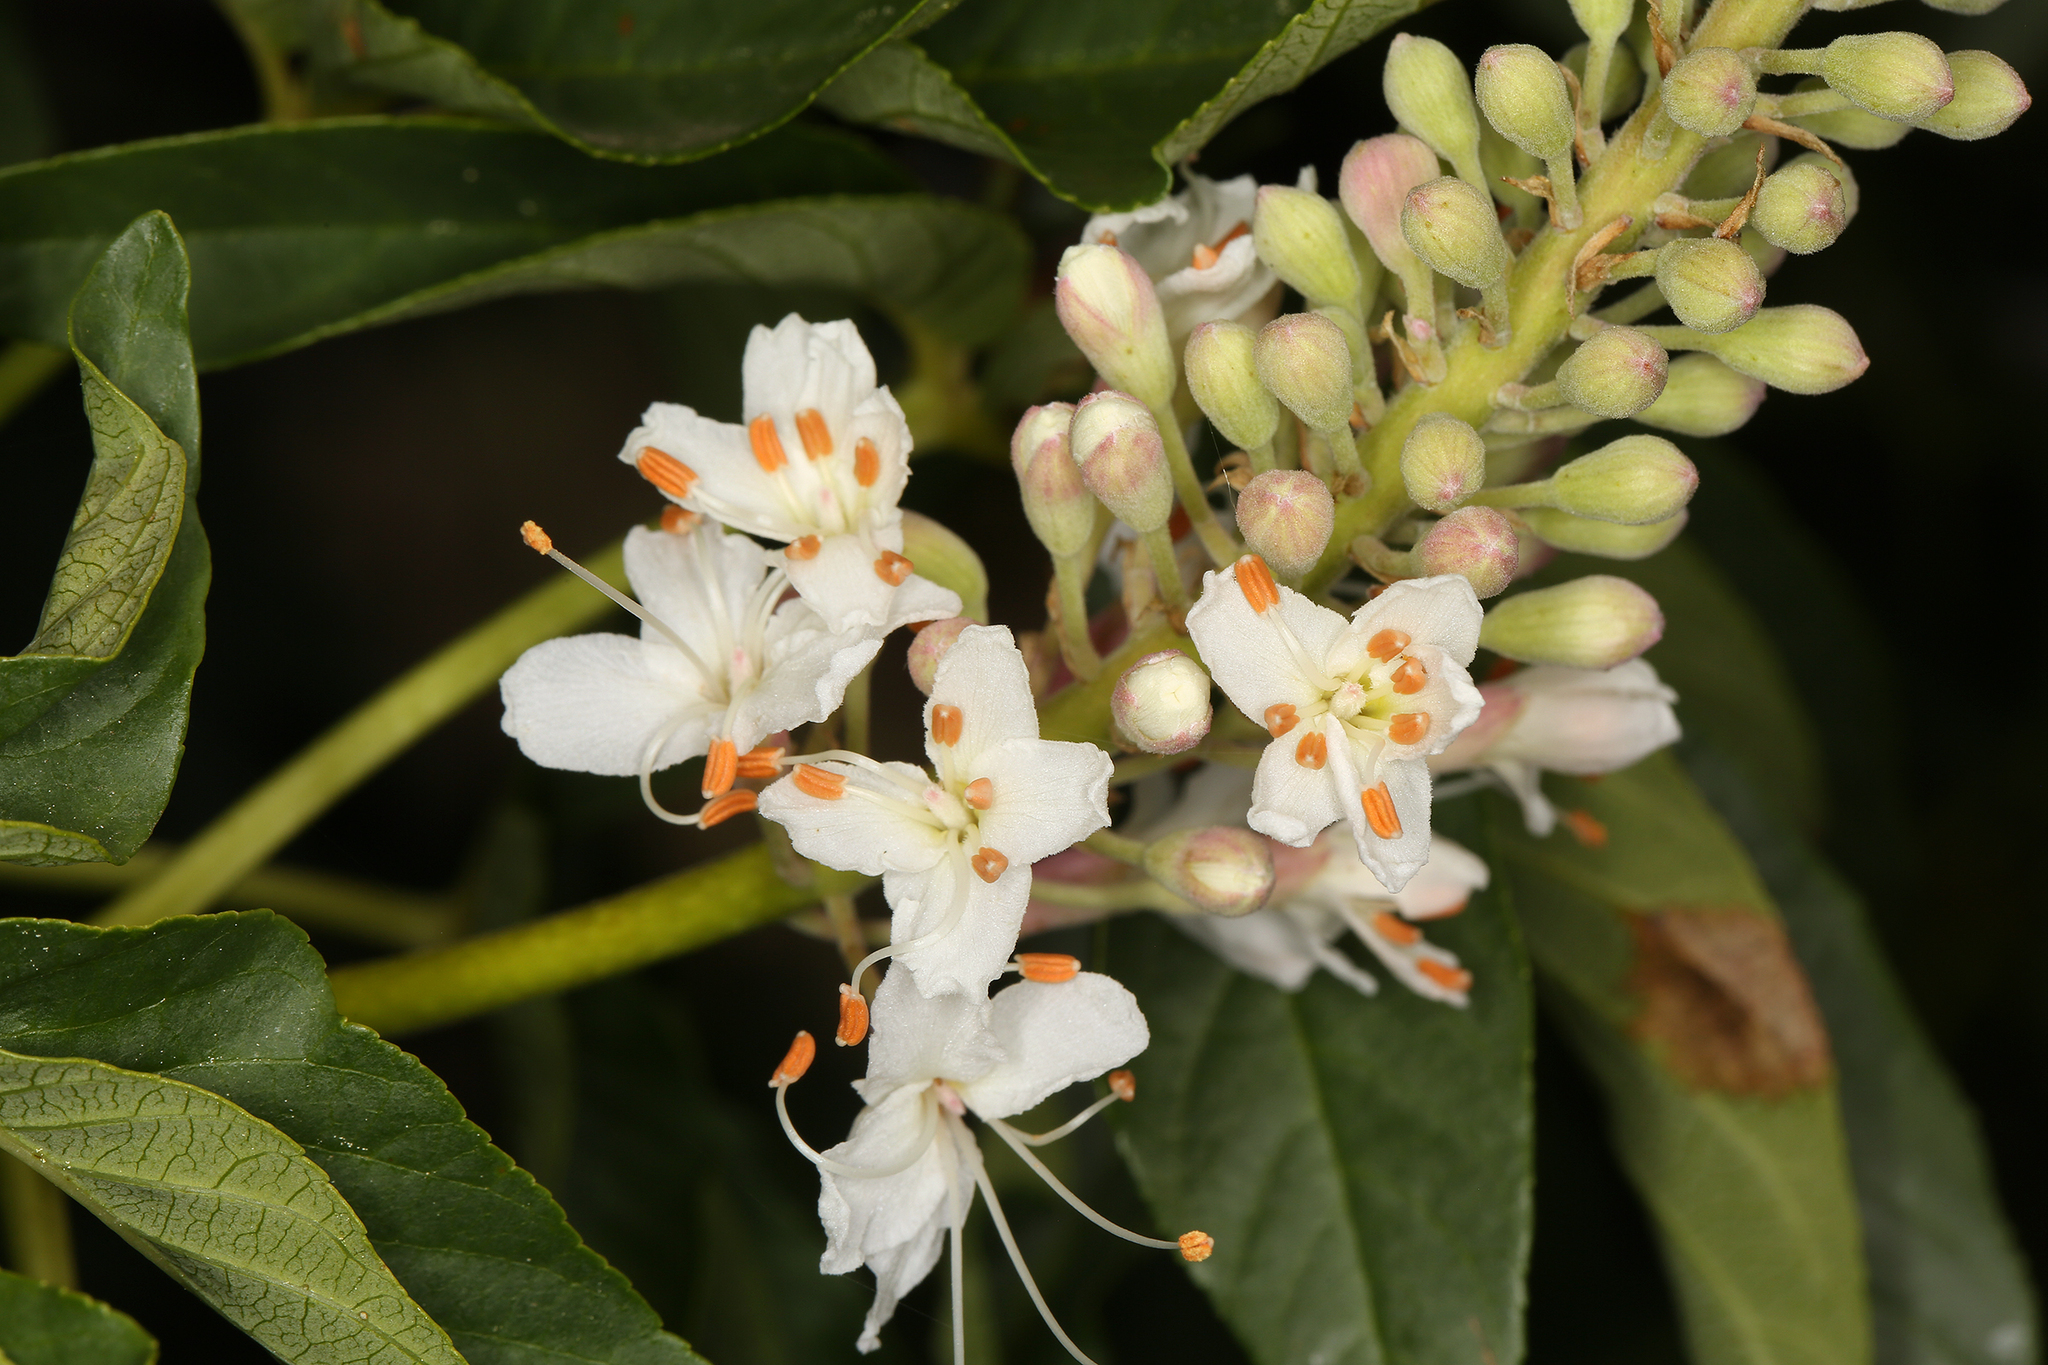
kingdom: Plantae
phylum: Tracheophyta
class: Magnoliopsida
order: Sapindales
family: Sapindaceae
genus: Aesculus
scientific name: Aesculus californica
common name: California buckeye
